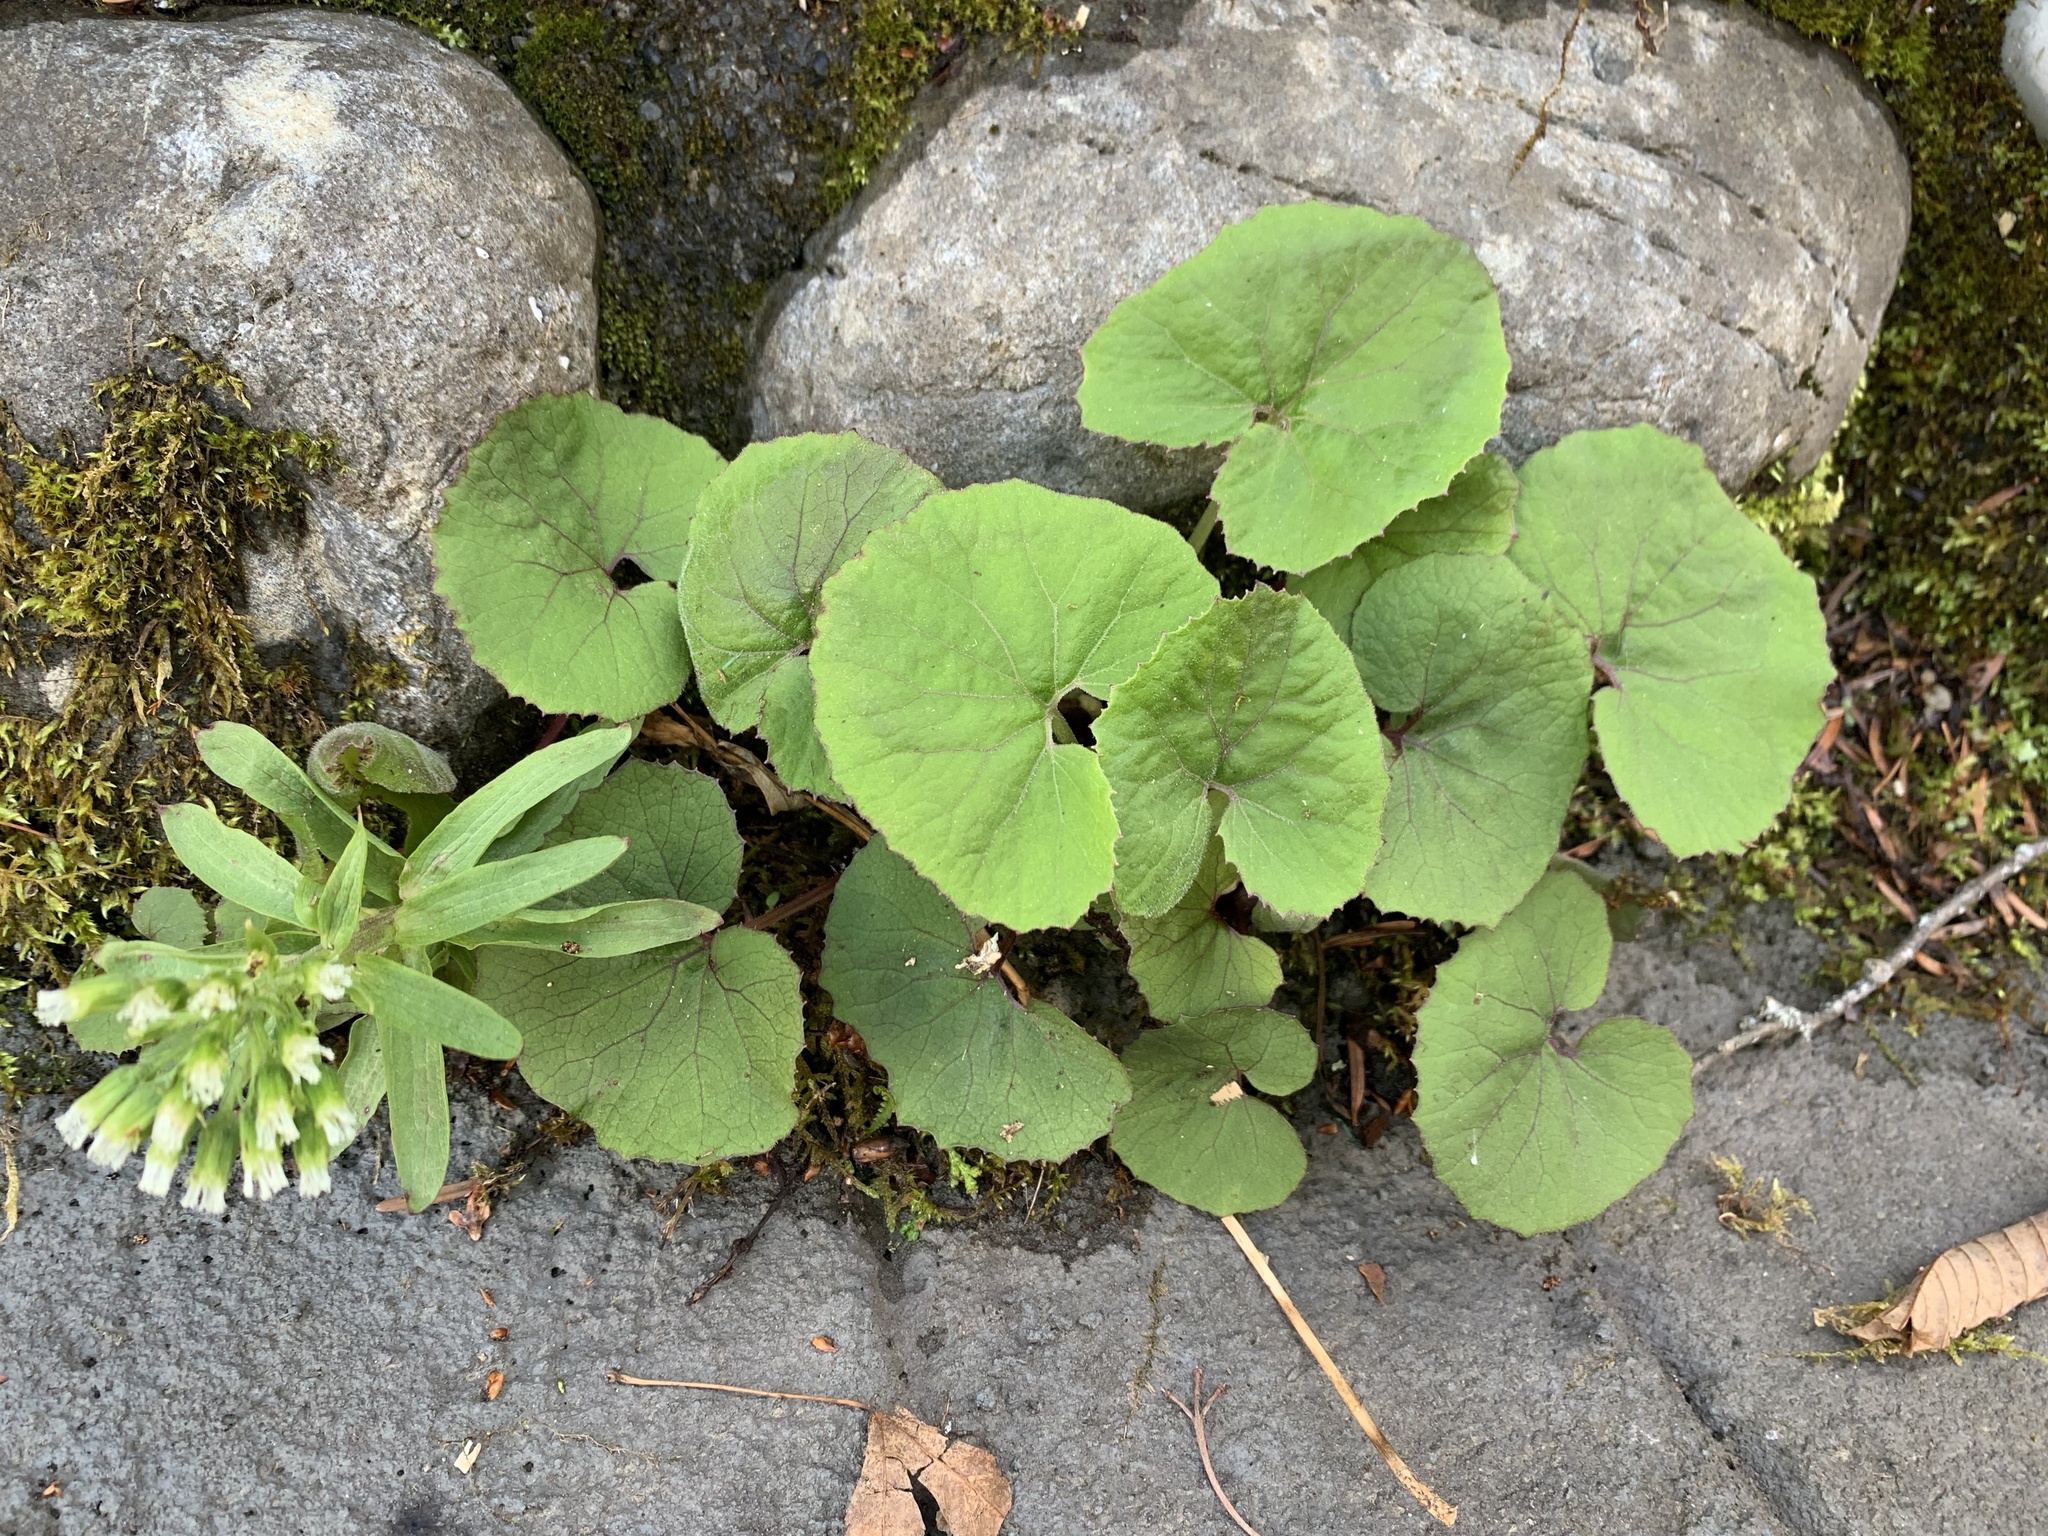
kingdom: Plantae
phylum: Tracheophyta
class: Magnoliopsida
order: Asterales
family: Asteraceae
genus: Petasites
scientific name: Petasites japonicus
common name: Giant butterbur
